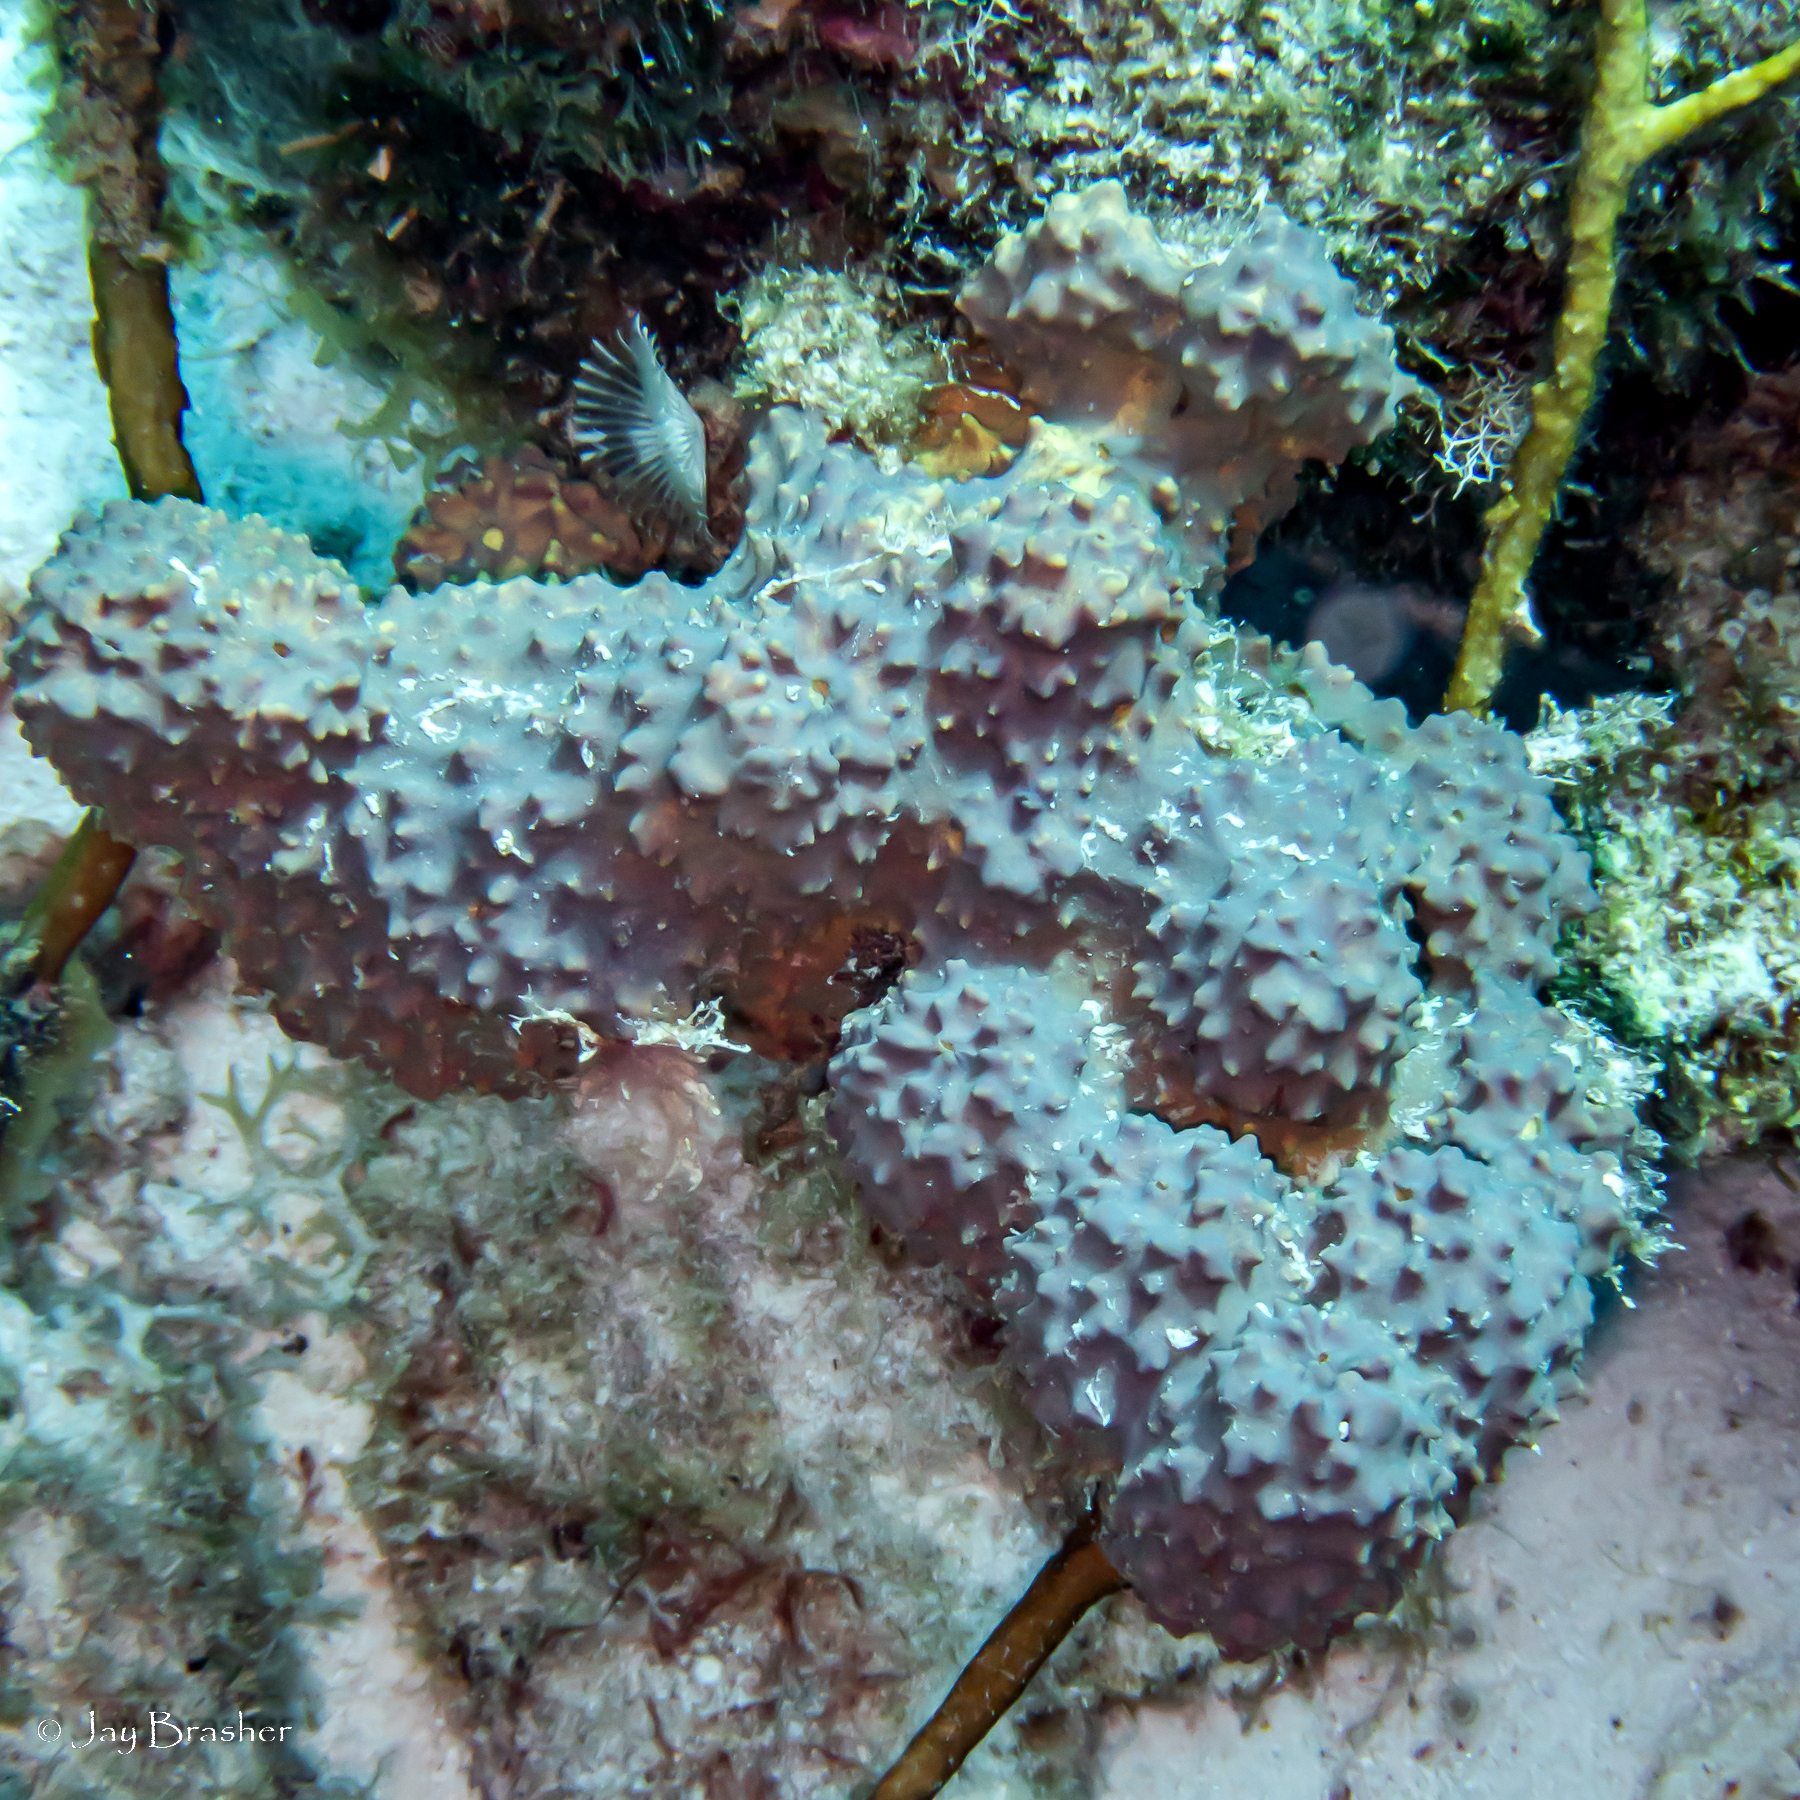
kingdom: Animalia
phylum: Porifera
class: Demospongiae
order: Verongiida
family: Aplysinidae
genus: Aiolochroia
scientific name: Aiolochroia crassa
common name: Branching tube sponge
